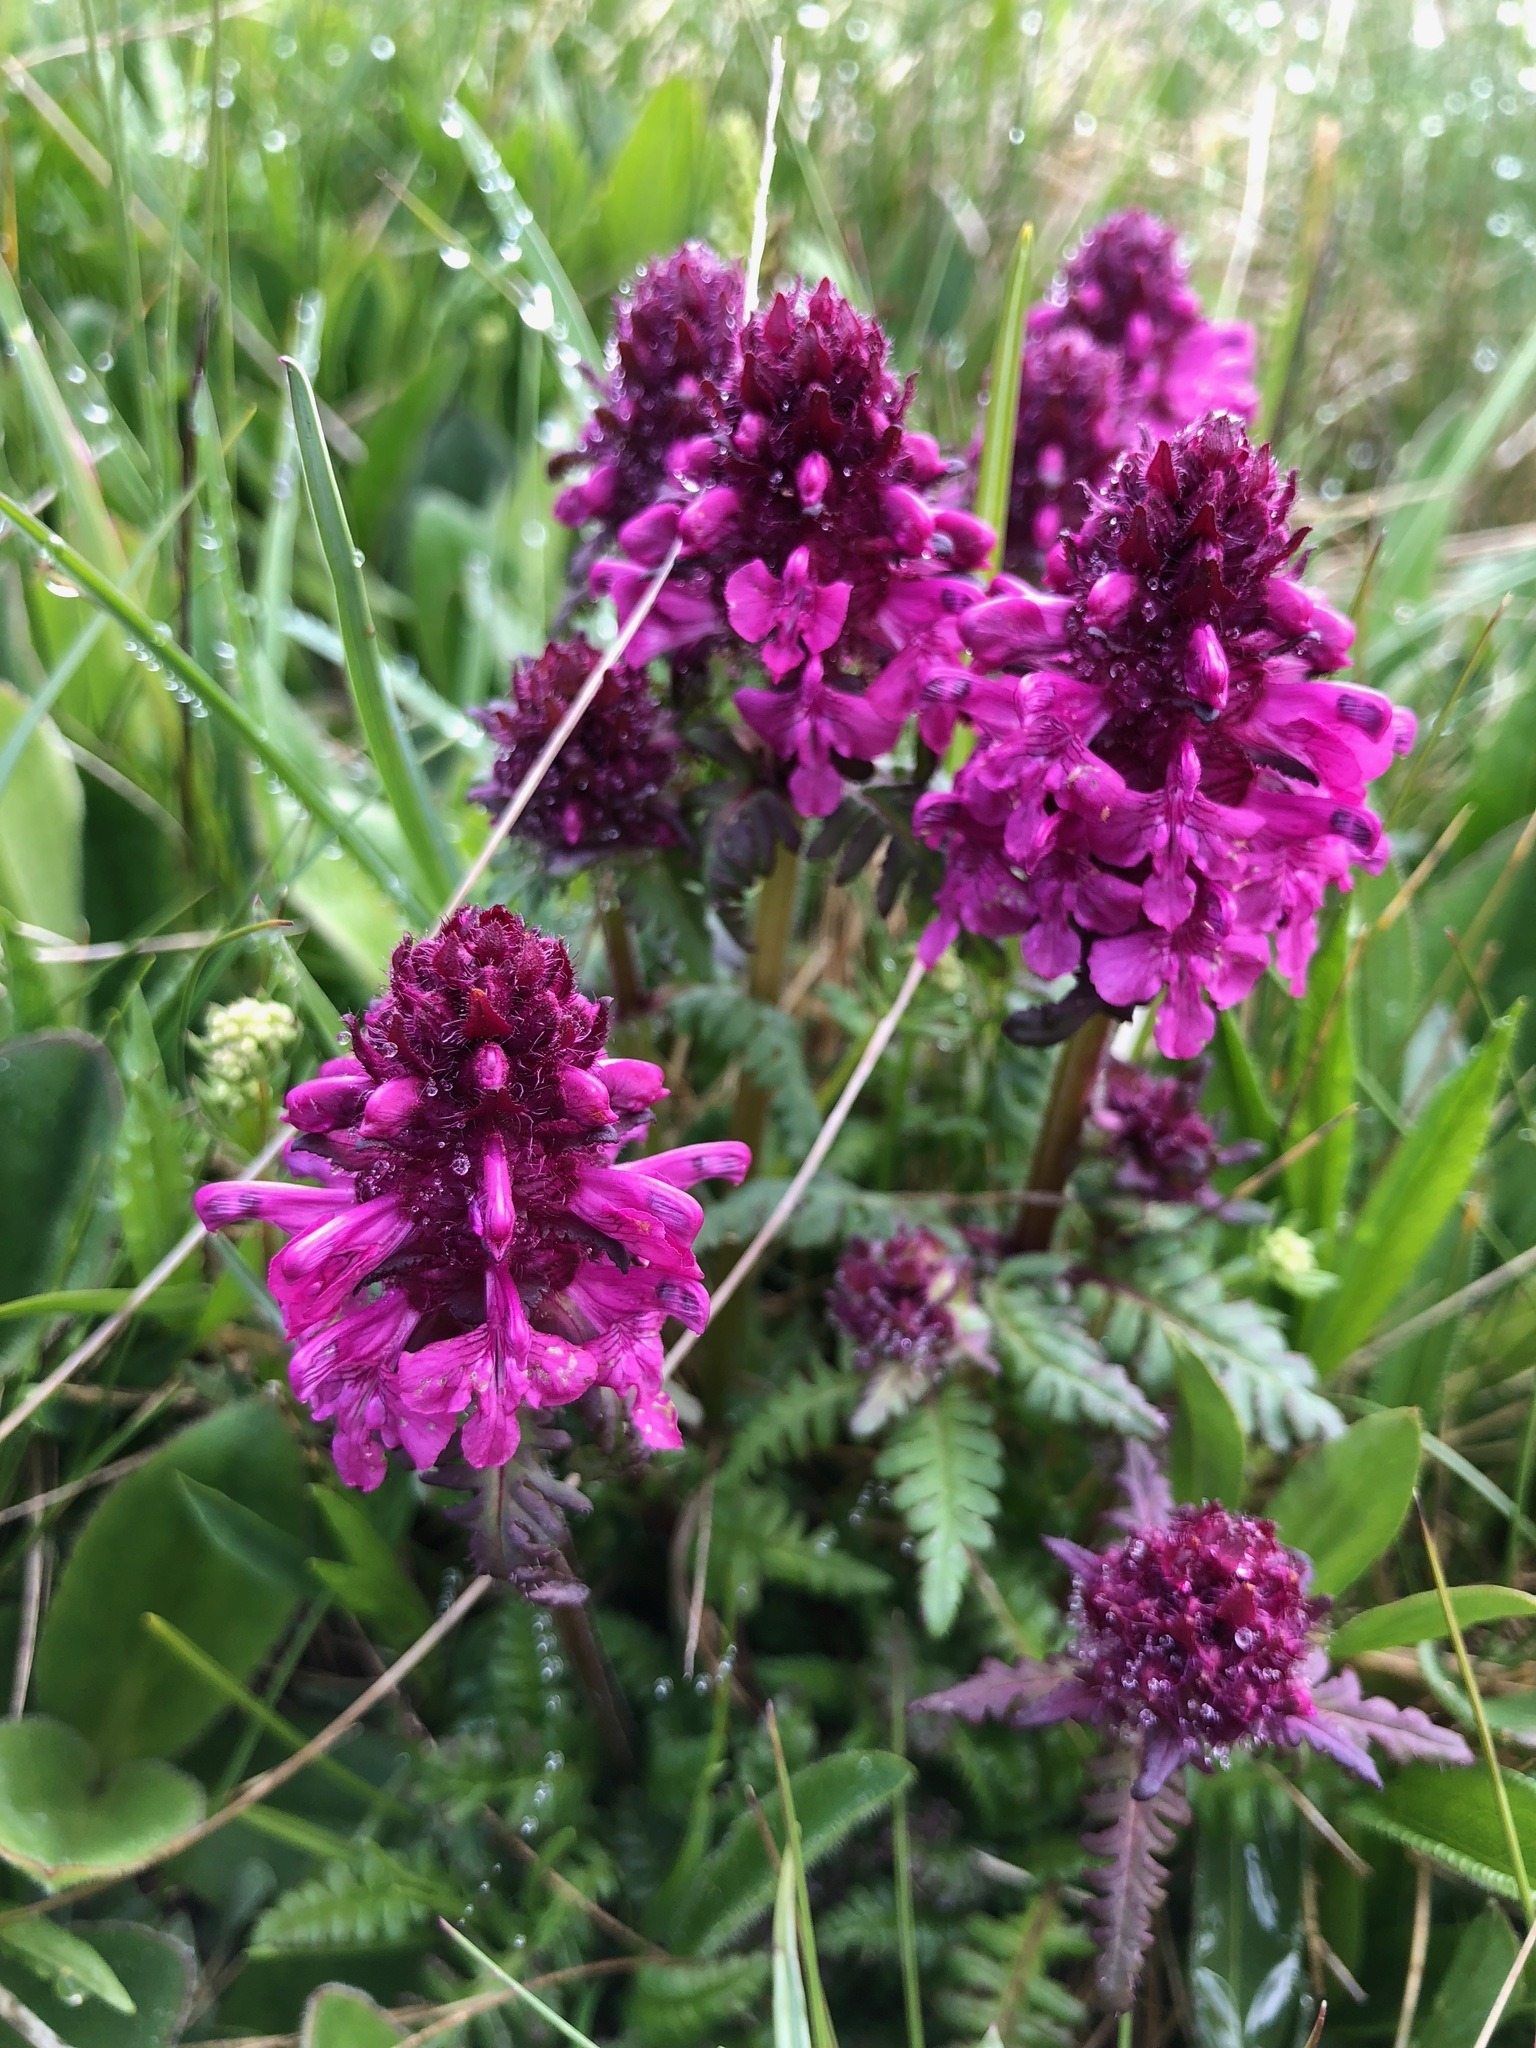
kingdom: Plantae
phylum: Tracheophyta
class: Magnoliopsida
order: Lamiales
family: Orobanchaceae
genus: Pedicularis
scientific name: Pedicularis verticillata
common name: Whorled lousewort
